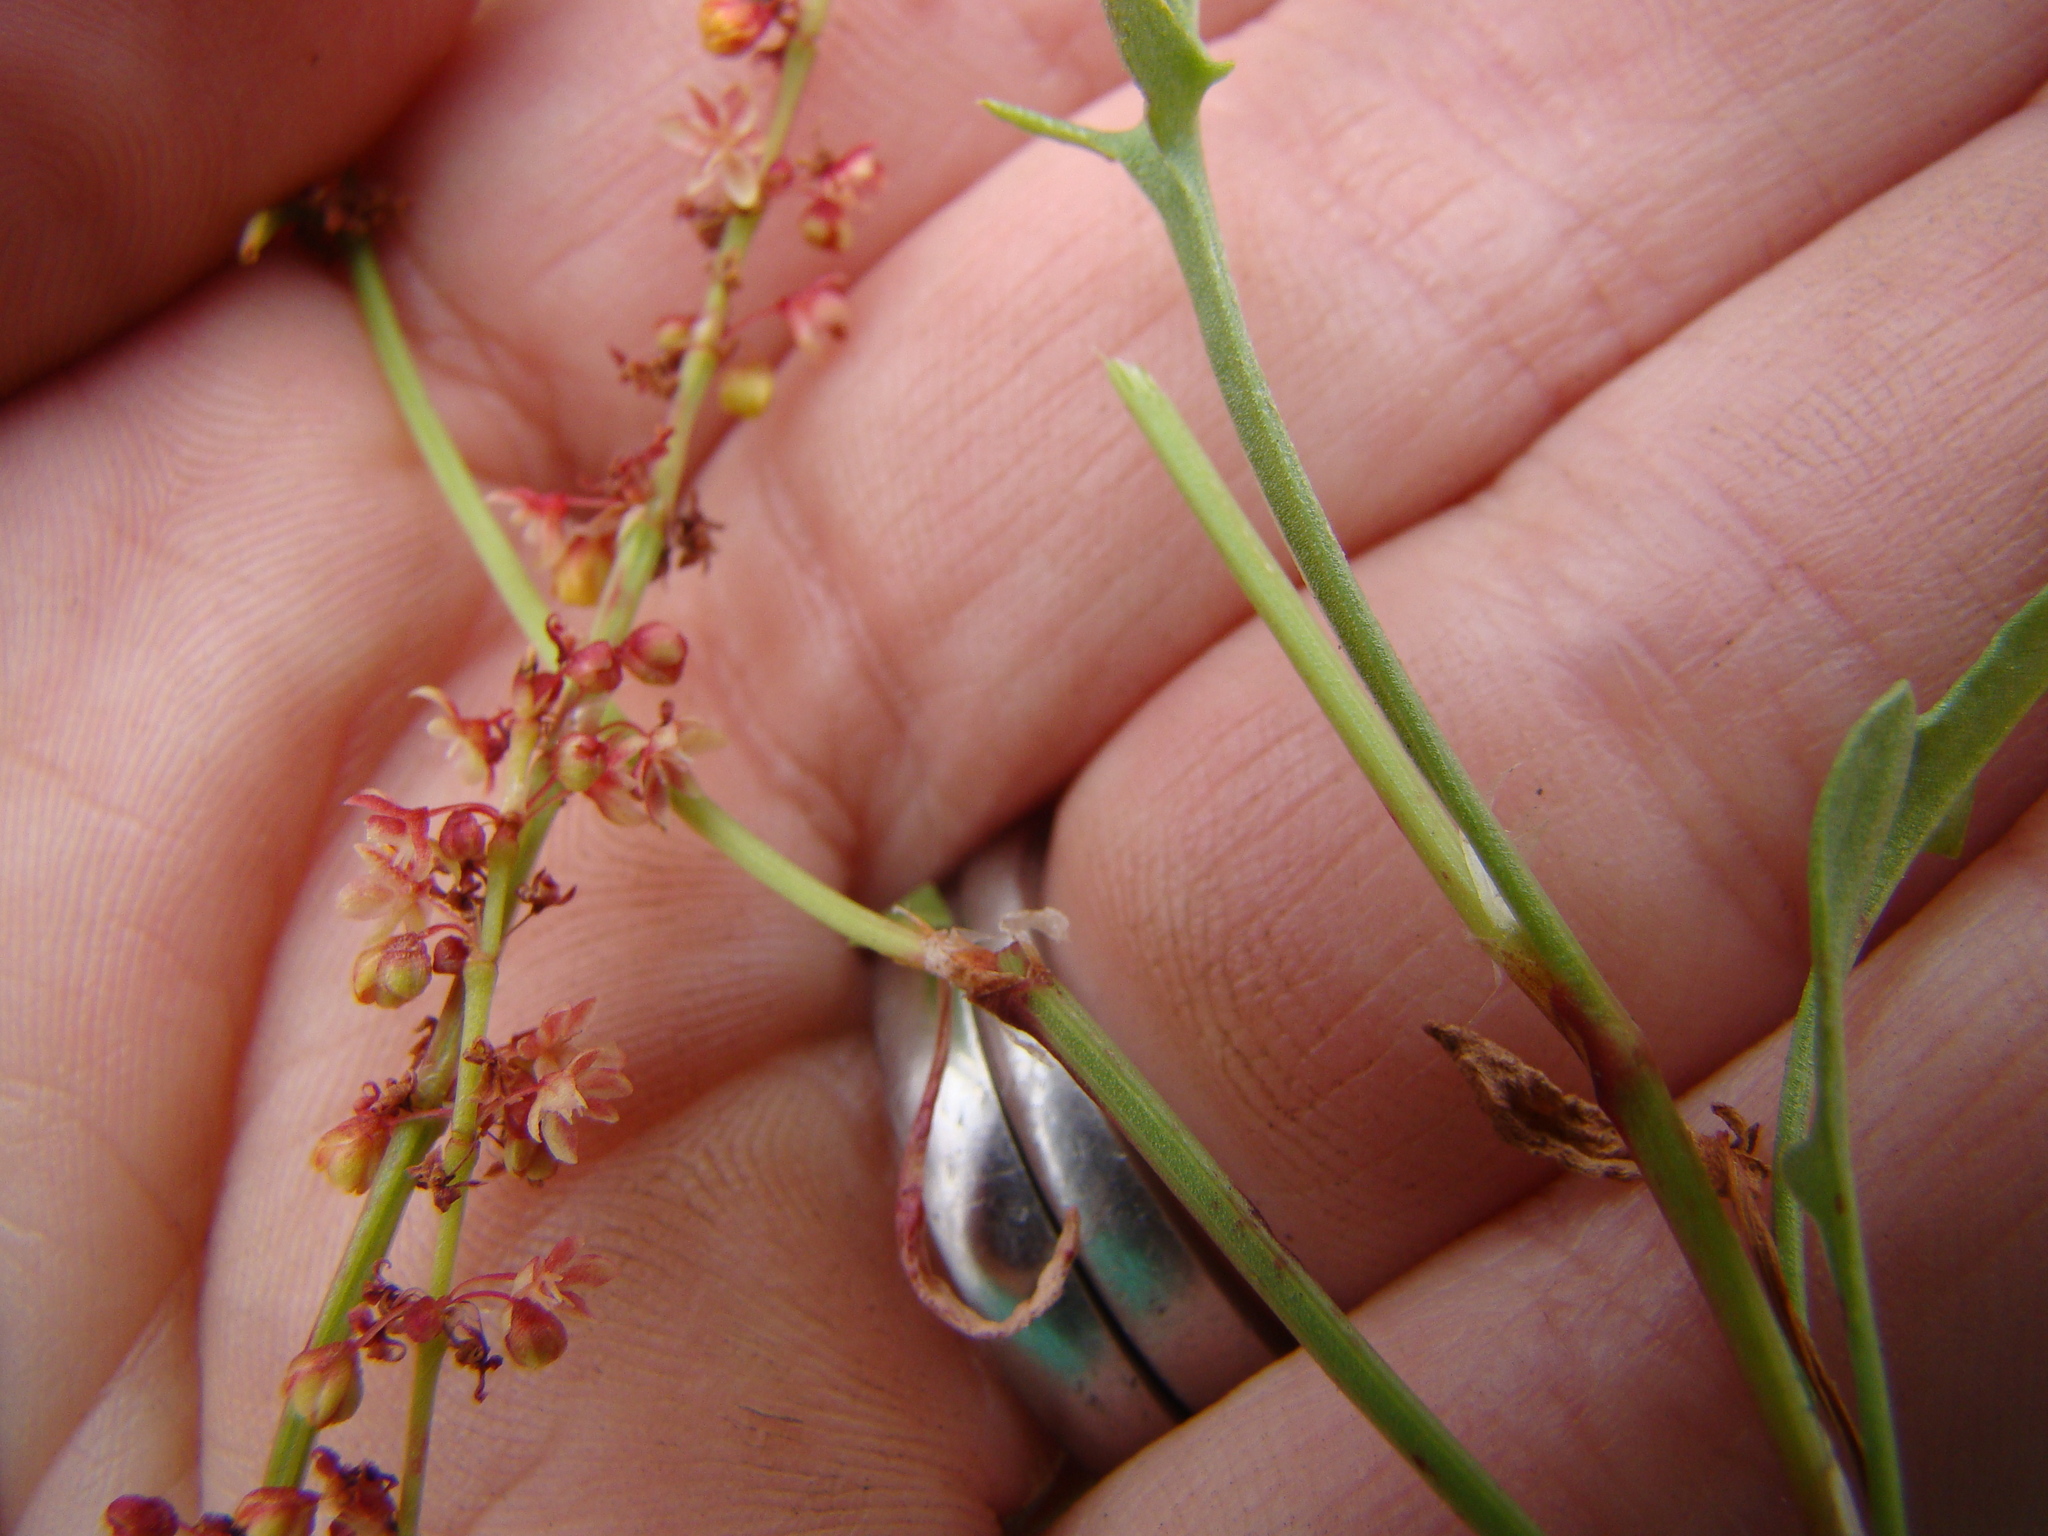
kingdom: Plantae
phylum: Tracheophyta
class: Magnoliopsida
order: Caryophyllales
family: Polygonaceae
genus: Rumex
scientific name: Rumex acetosella
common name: Common sheep sorrel
